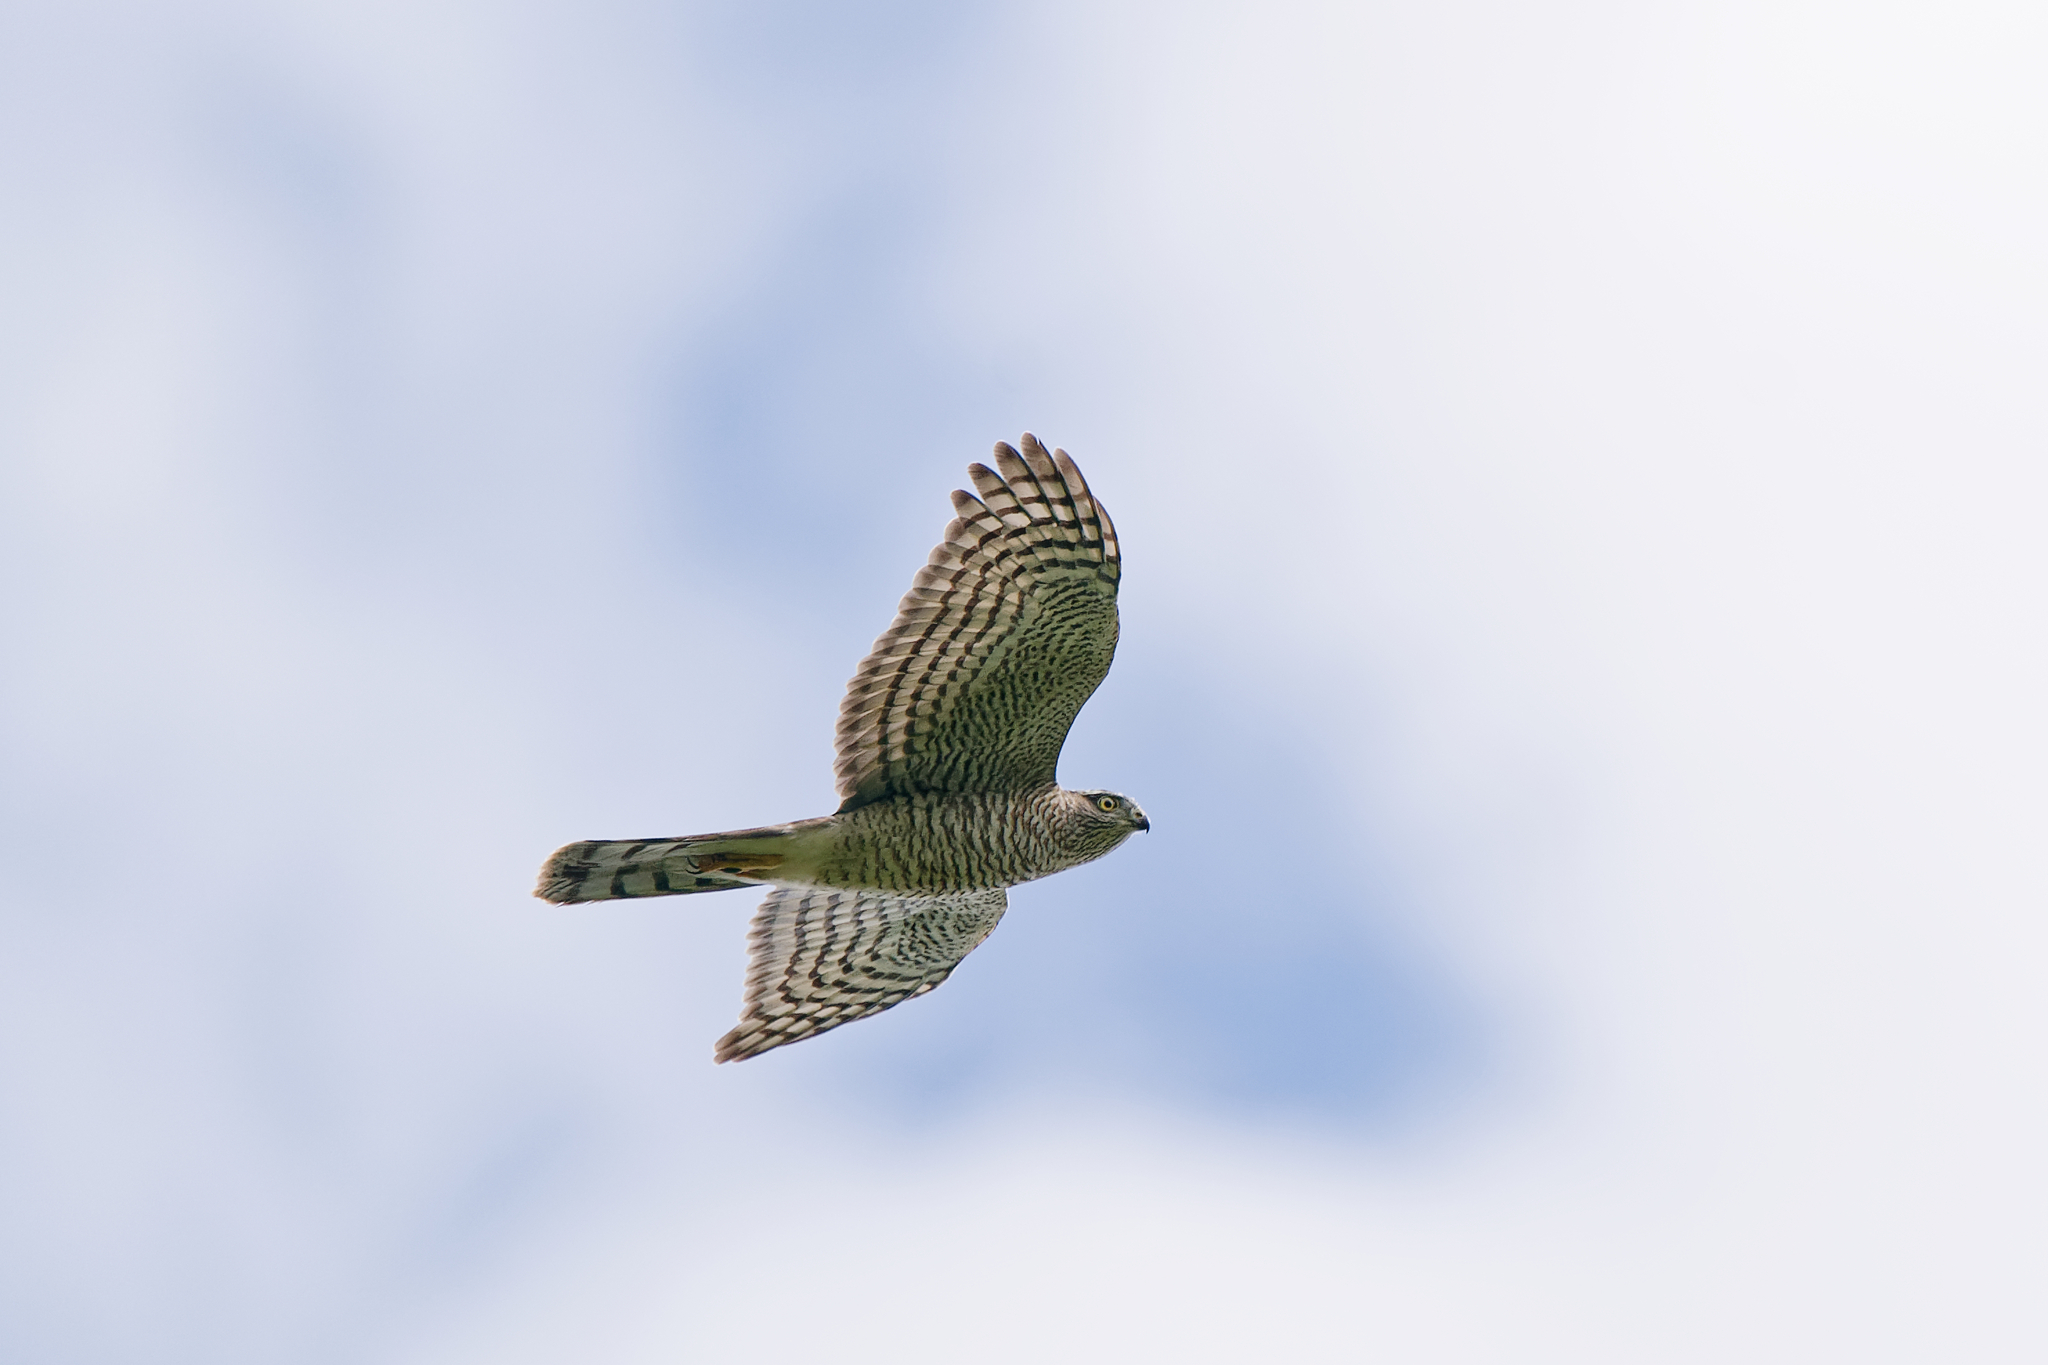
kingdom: Animalia
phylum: Chordata
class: Aves
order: Accipitriformes
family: Accipitridae
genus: Accipiter
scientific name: Accipiter nisus
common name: Eurasian sparrowhawk
